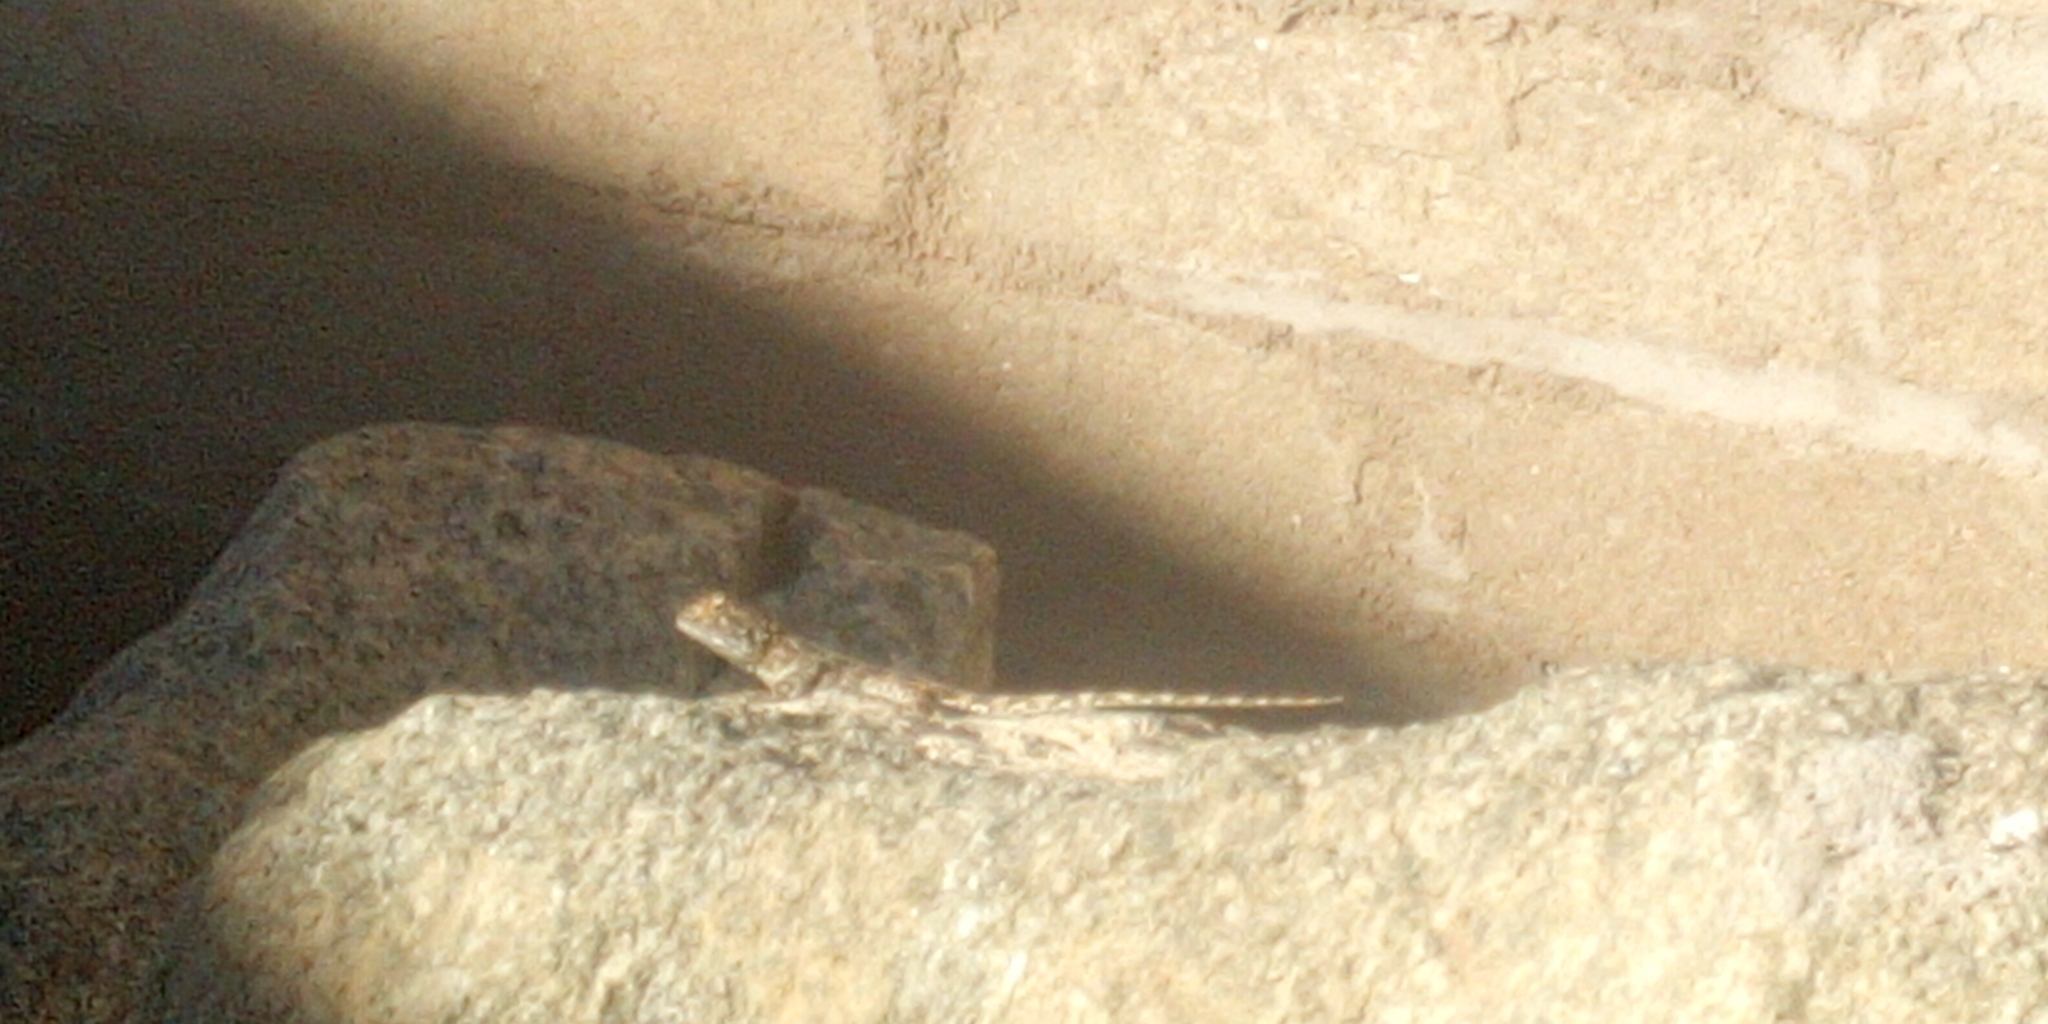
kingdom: Animalia
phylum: Chordata
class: Squamata
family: Agamidae
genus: Agama
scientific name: Agama aculeata
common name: Common ground agama
